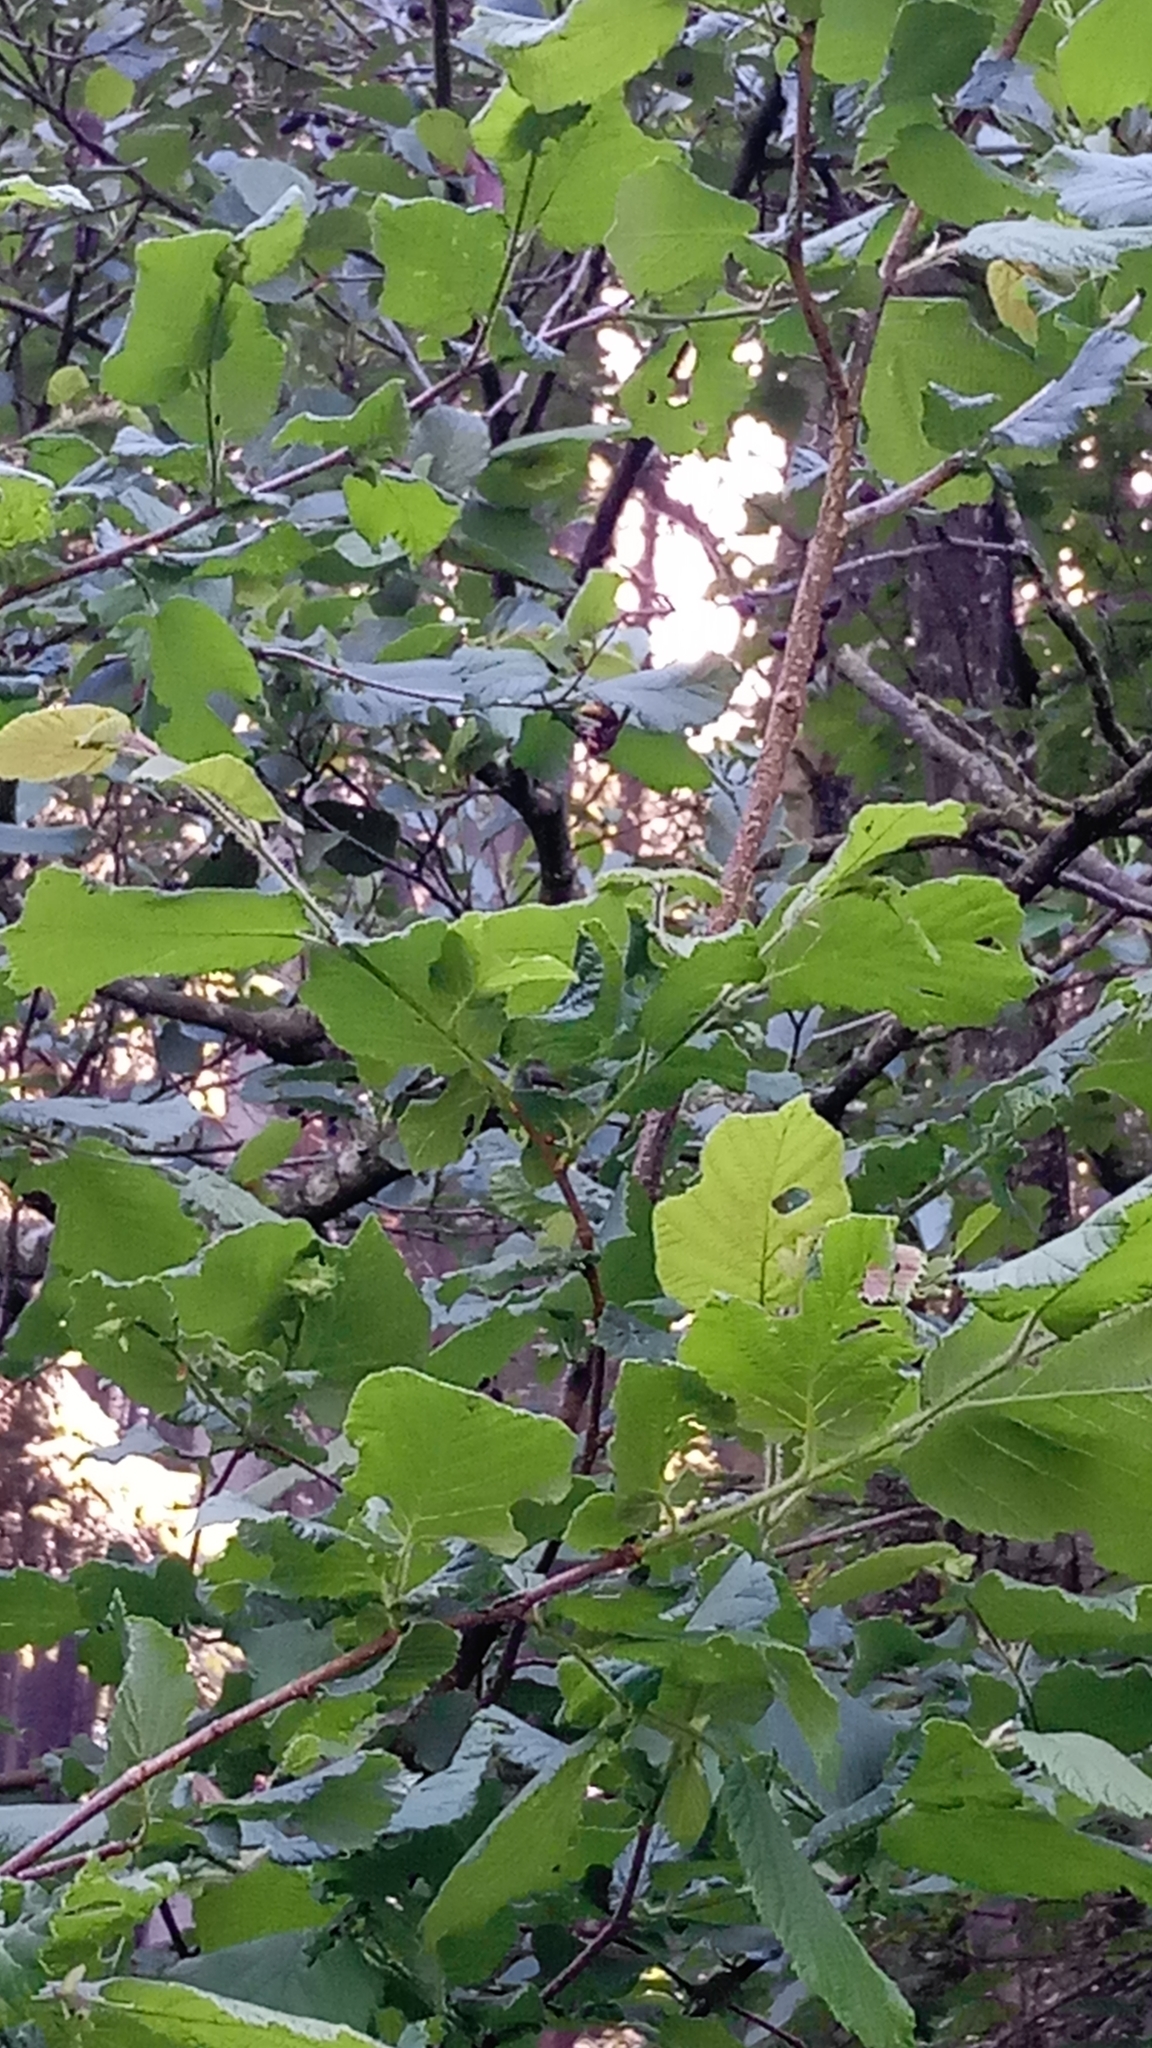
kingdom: Animalia
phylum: Arthropoda
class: Insecta
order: Hymenoptera
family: Vespidae
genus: Vespa
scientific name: Vespa crabro
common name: Hornet
